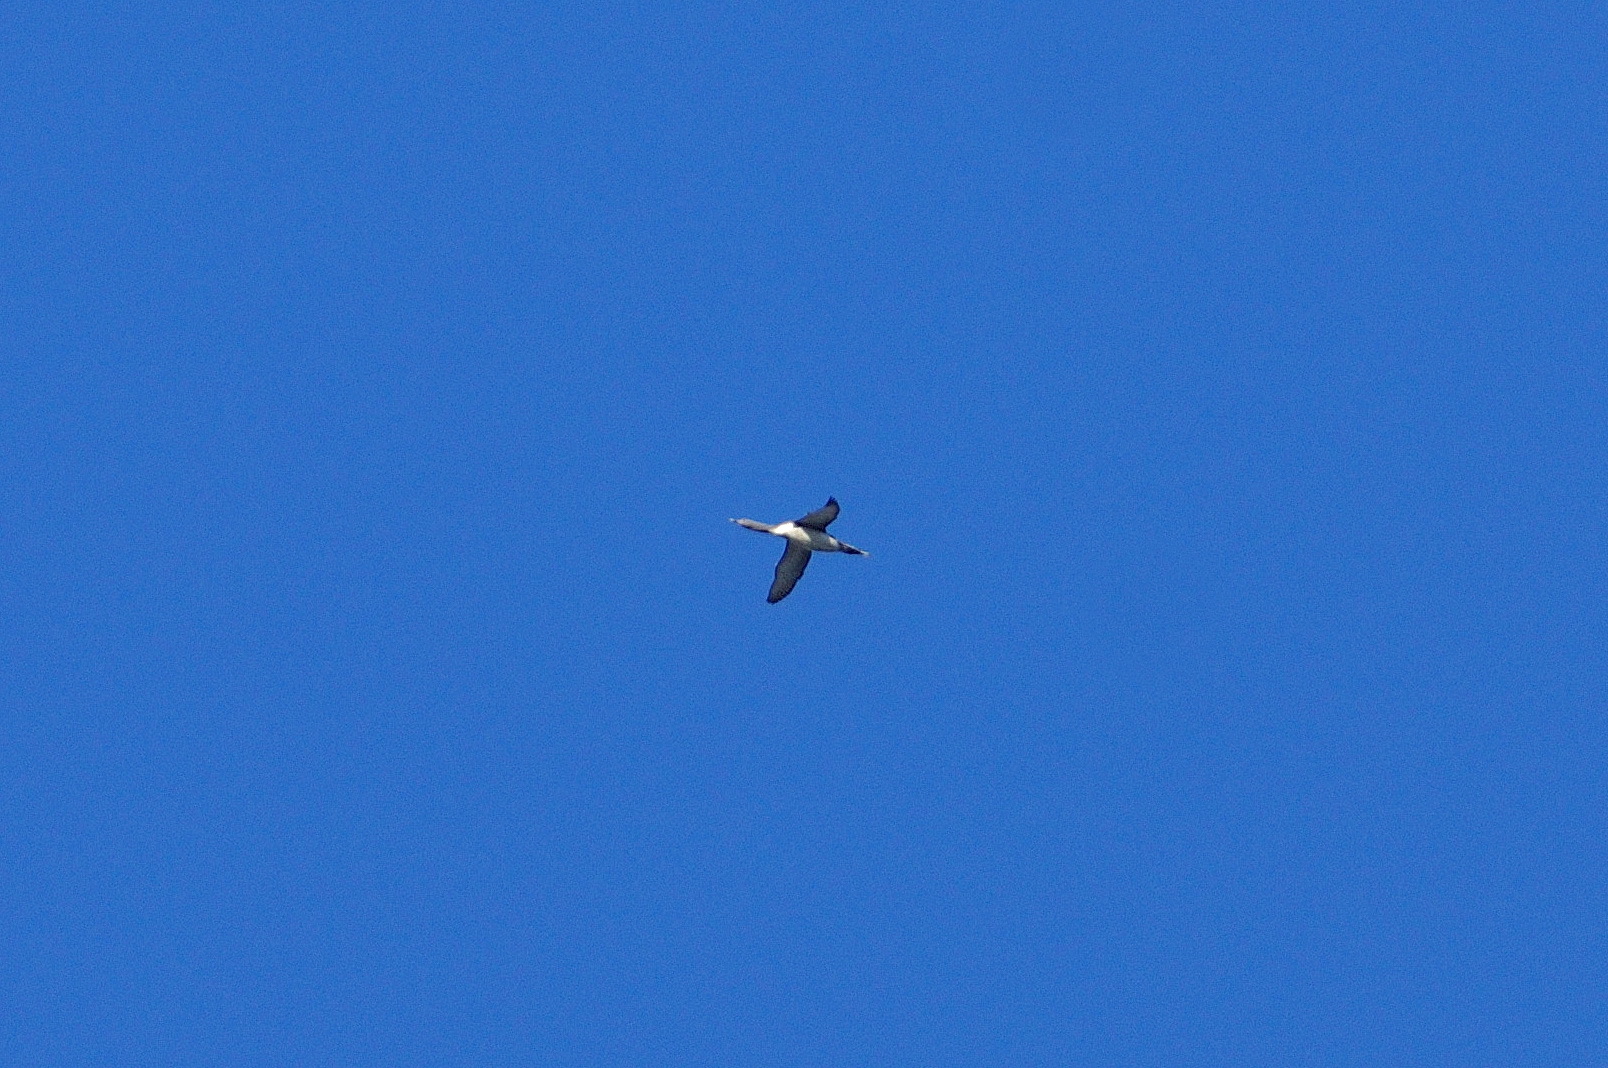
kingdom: Animalia
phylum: Chordata
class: Aves
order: Gaviiformes
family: Gaviidae
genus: Gavia
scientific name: Gavia stellata
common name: Red-throated loon
